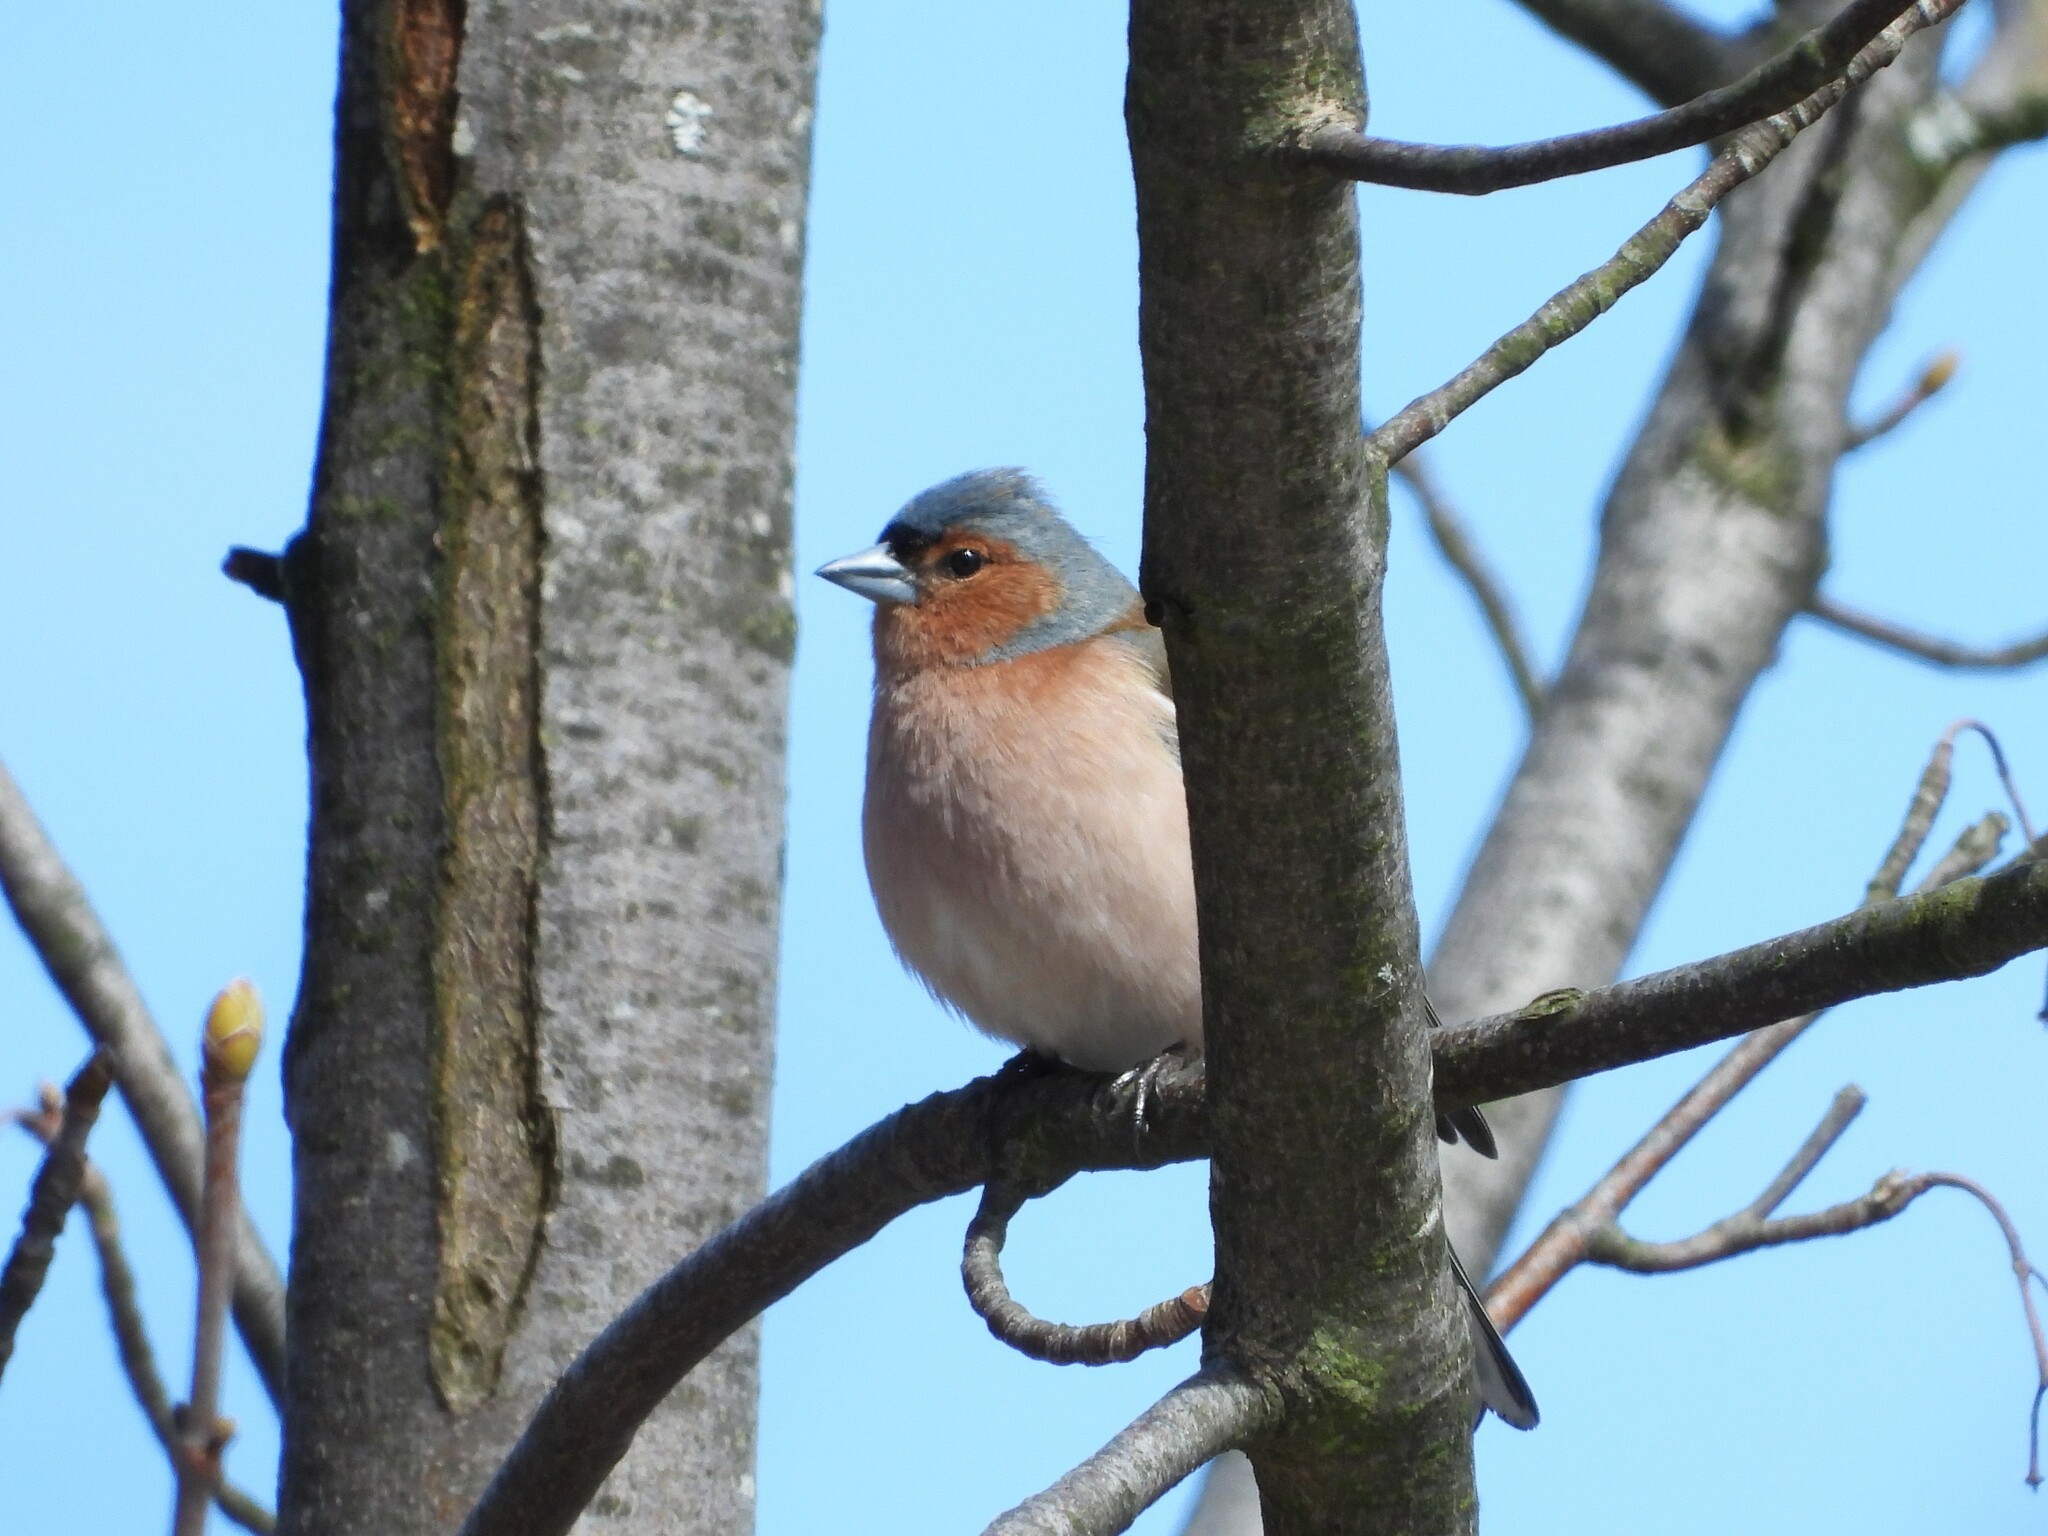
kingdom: Animalia
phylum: Chordata
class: Aves
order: Passeriformes
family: Fringillidae
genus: Fringilla
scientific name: Fringilla coelebs
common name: Common chaffinch
